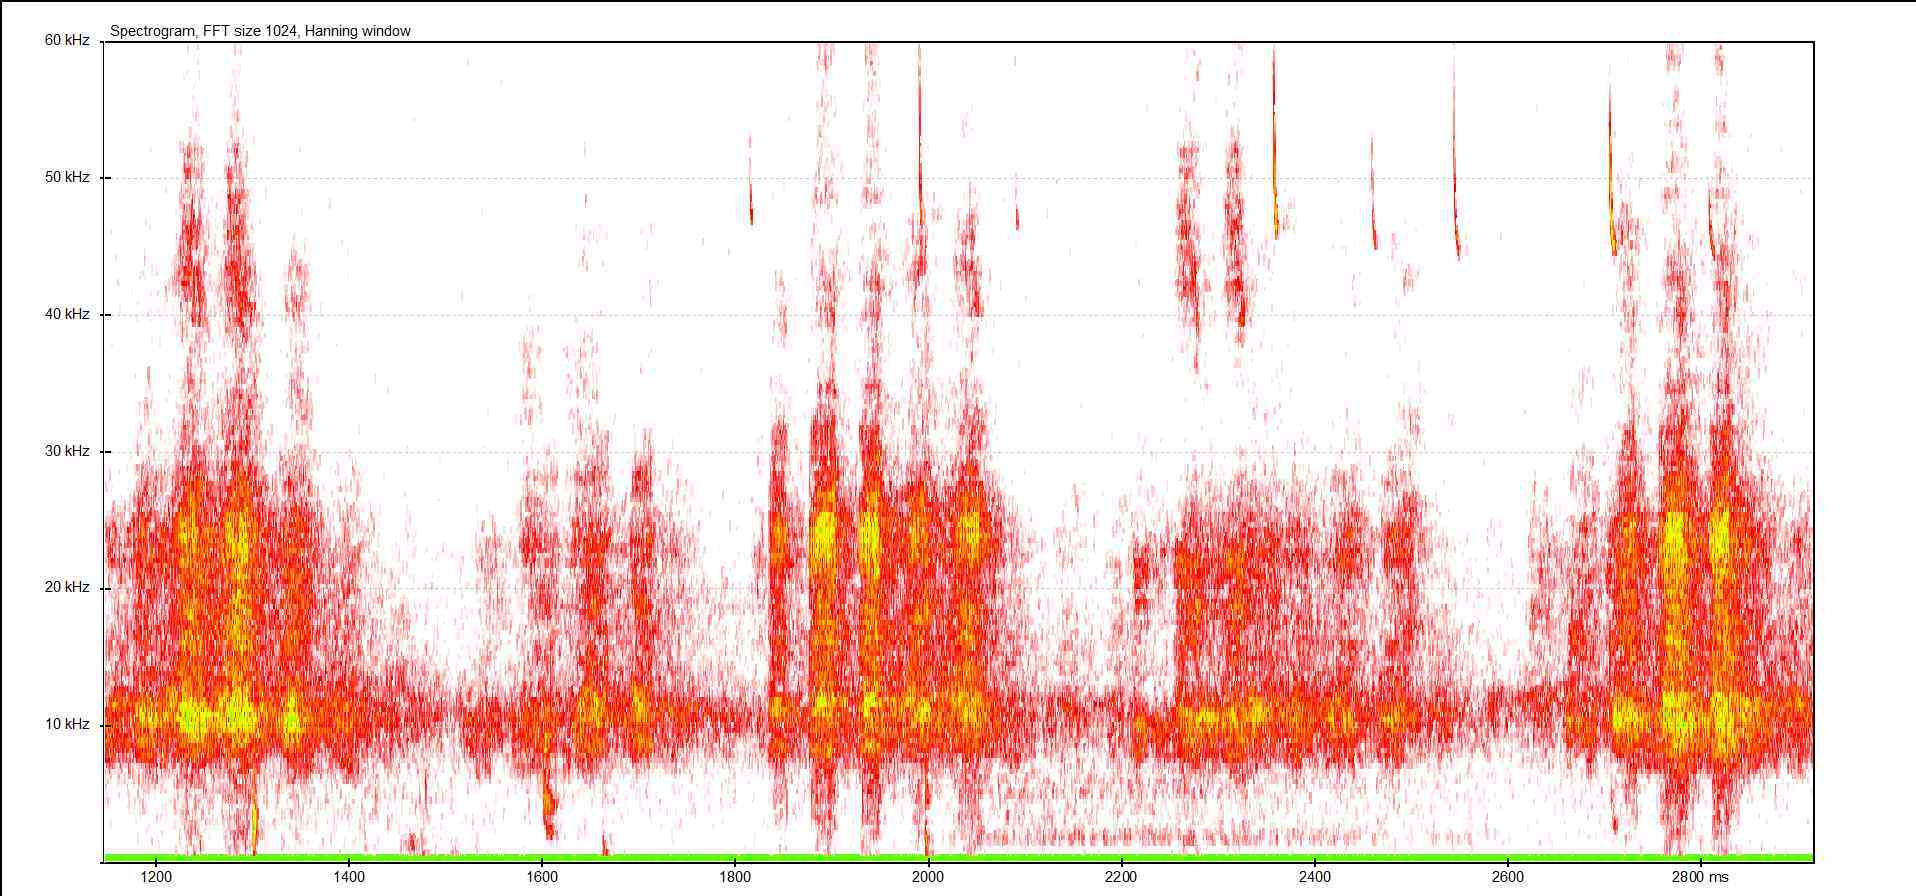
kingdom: Animalia
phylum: Arthropoda
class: Insecta
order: Orthoptera
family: Tettigoniidae
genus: Pholidoptera
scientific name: Pholidoptera griseoaptera
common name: Dark bush-cricket
